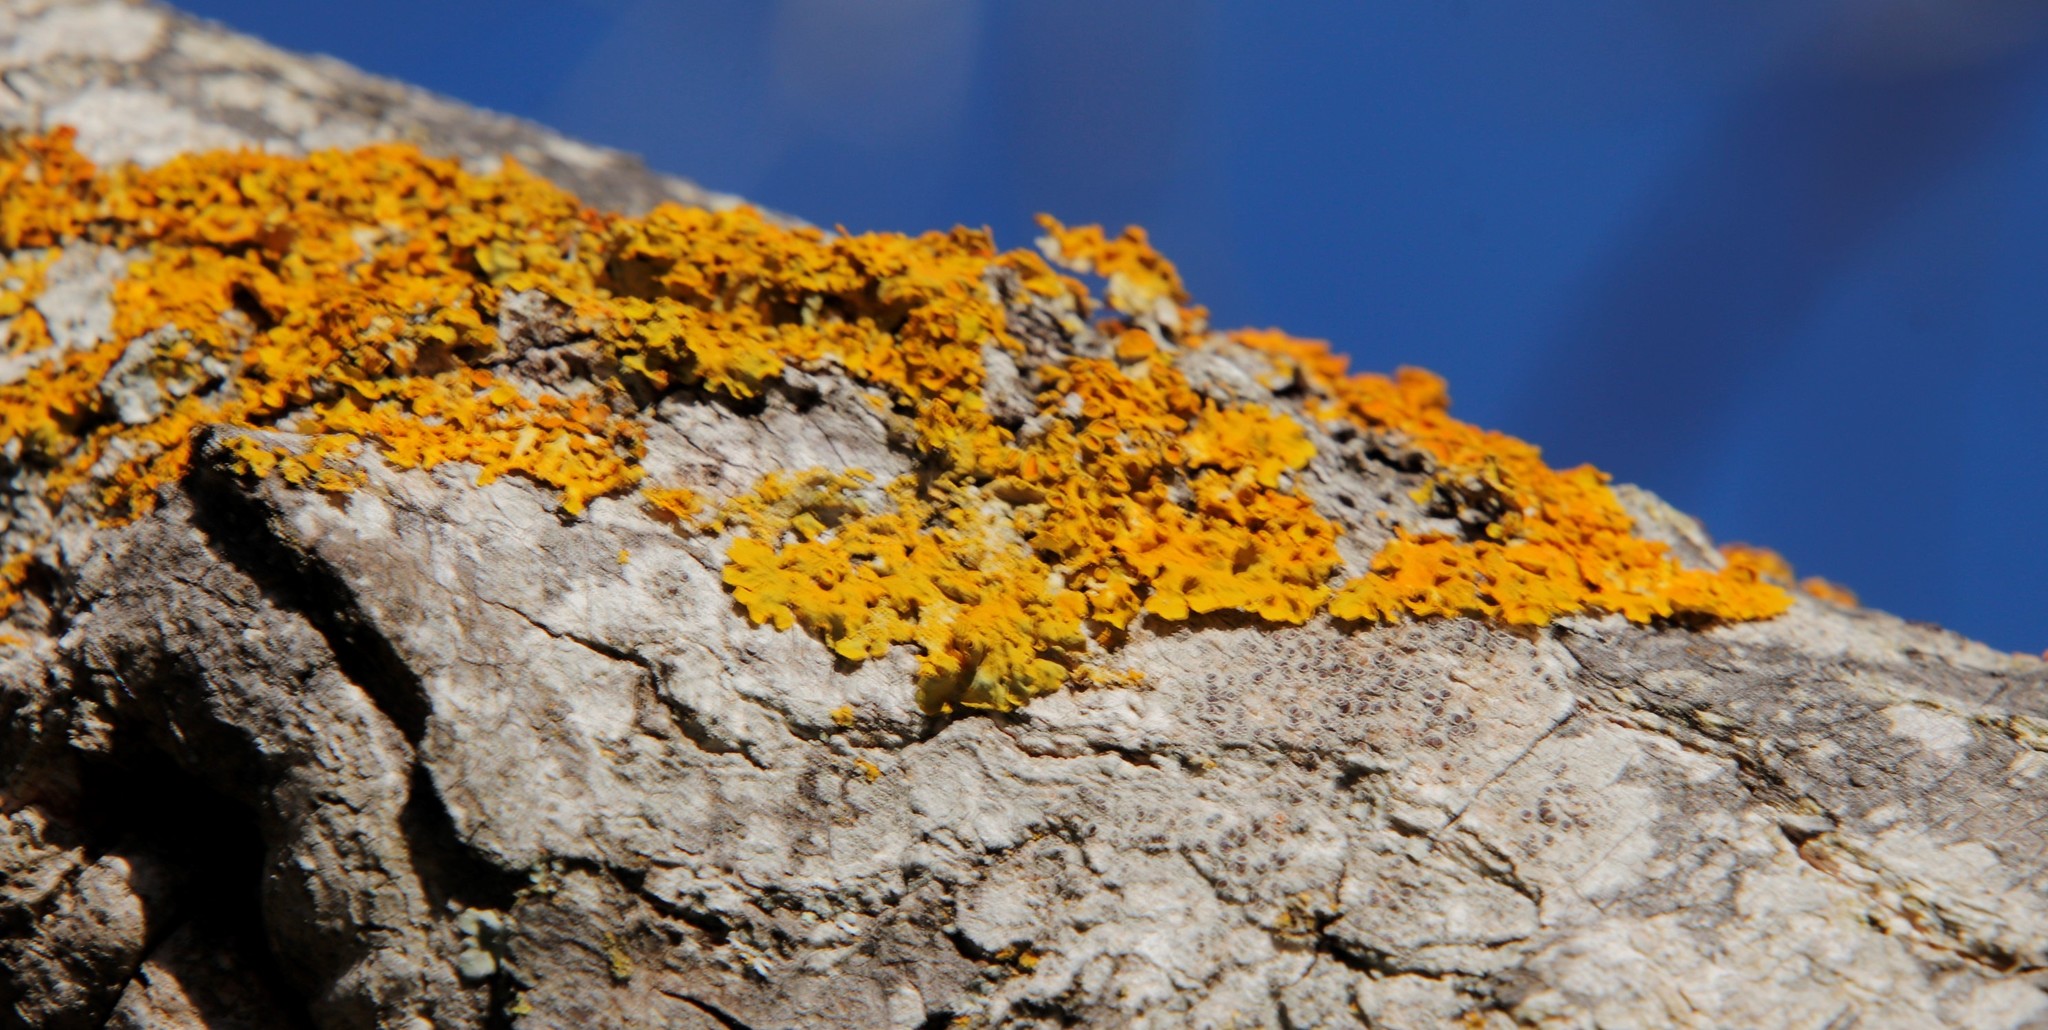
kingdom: Fungi
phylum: Ascomycota
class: Lecanoromycetes
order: Teloschistales
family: Teloschistaceae
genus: Xanthoria
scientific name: Xanthoria parietina
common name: Common orange lichen
